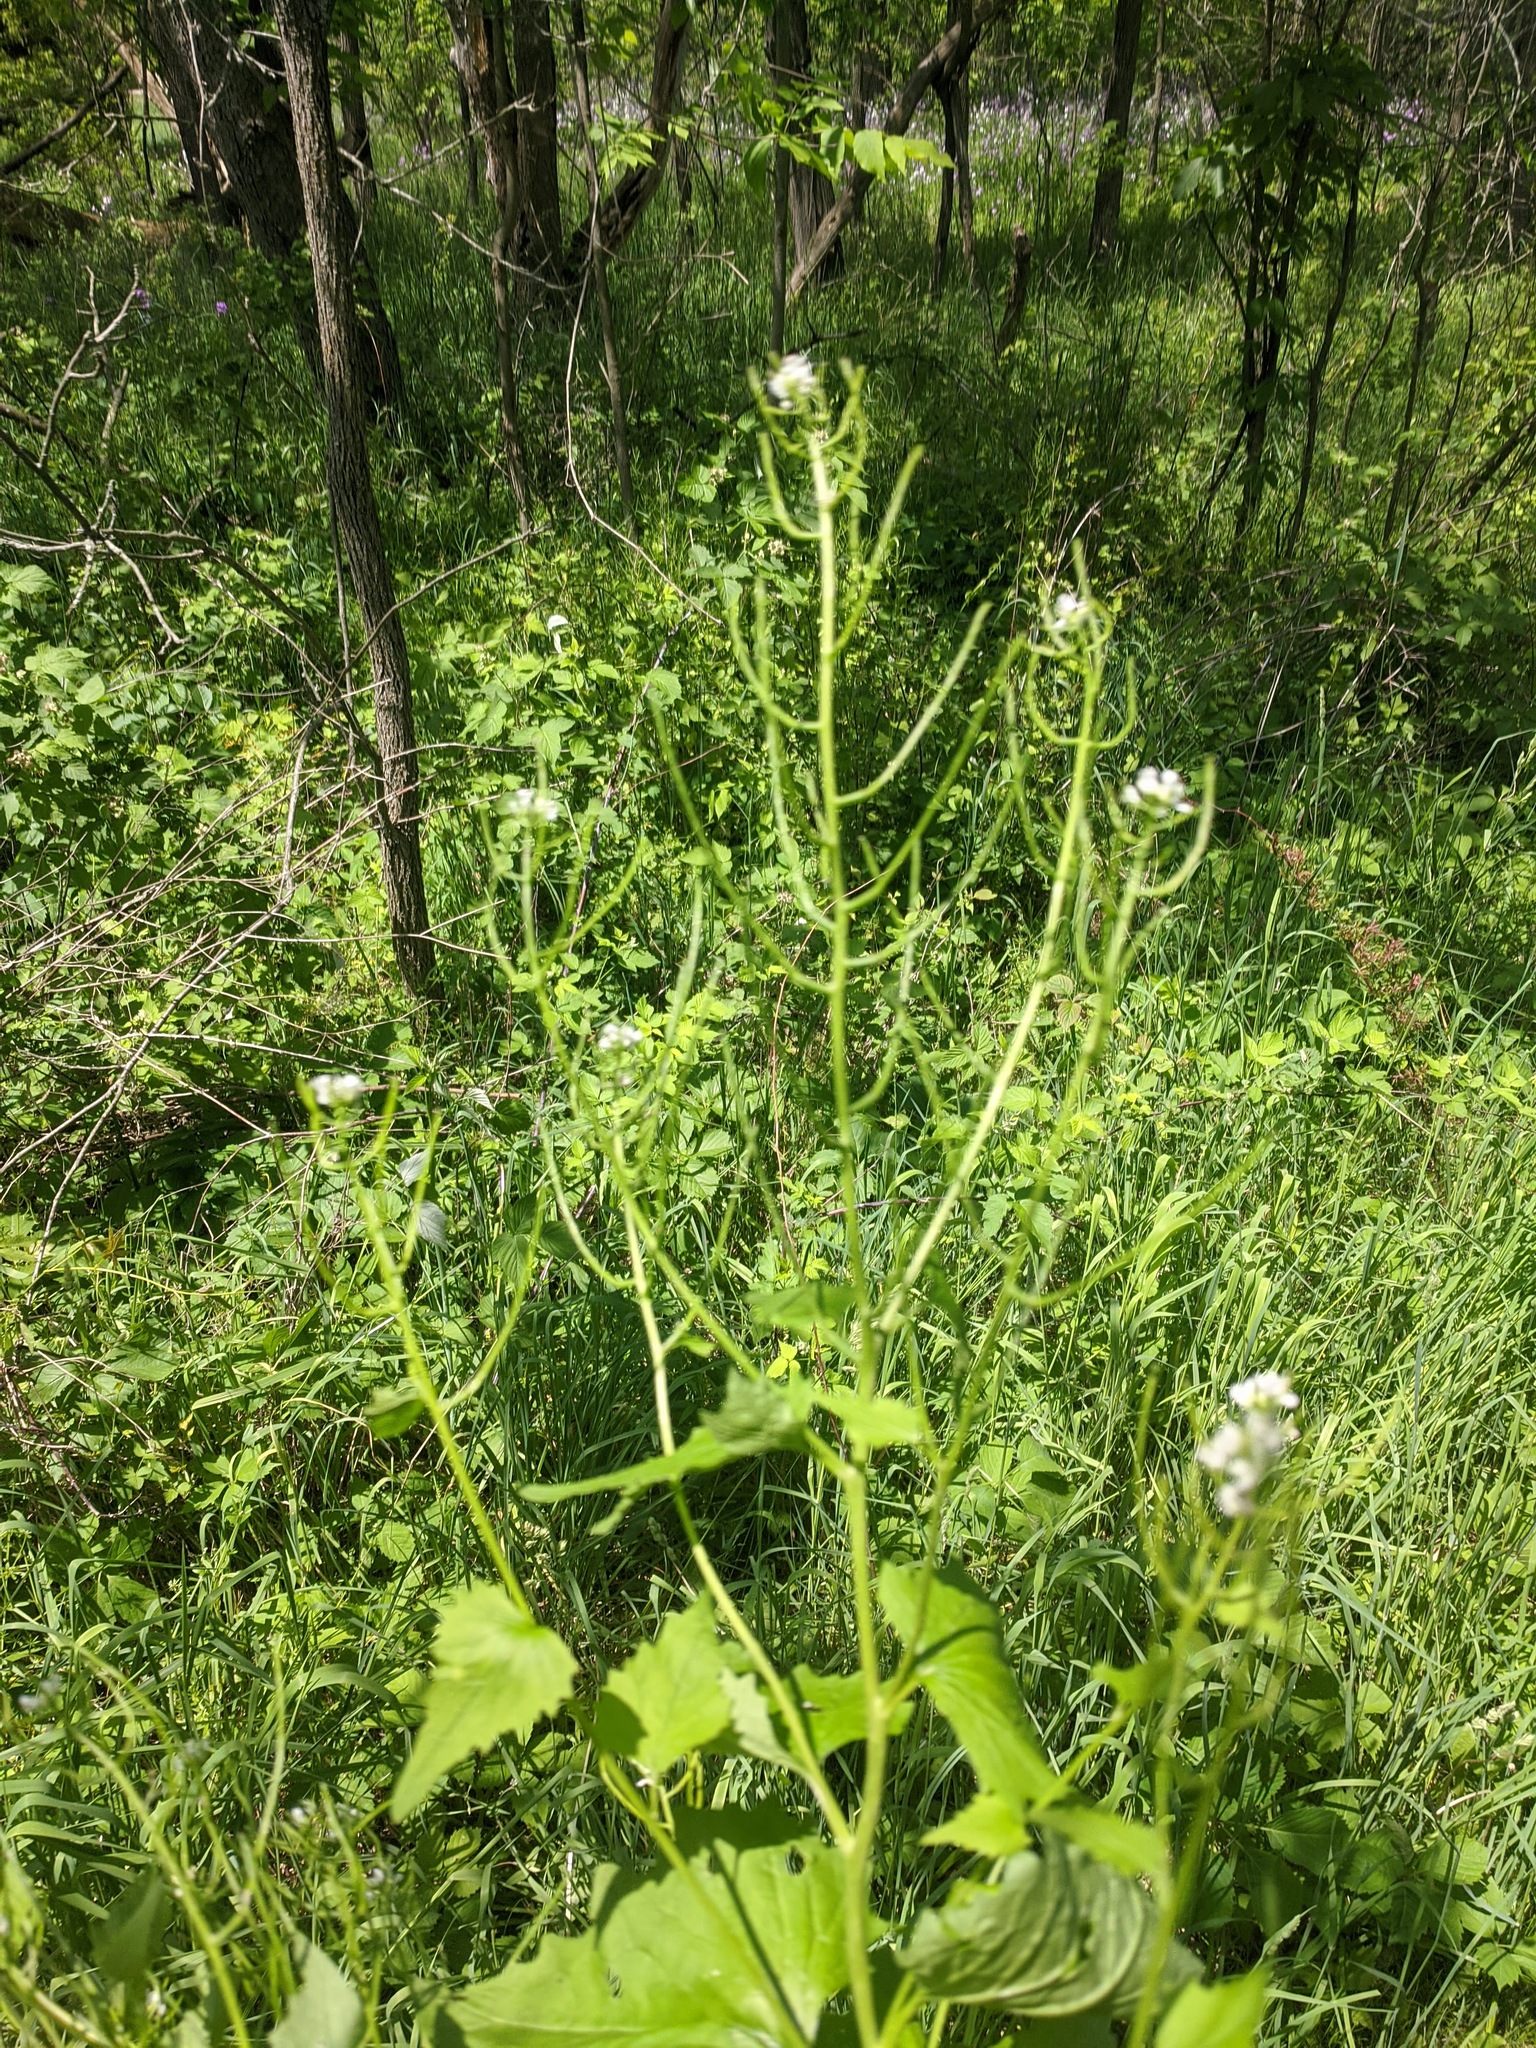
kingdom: Plantae
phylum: Tracheophyta
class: Magnoliopsida
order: Brassicales
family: Brassicaceae
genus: Alliaria
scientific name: Alliaria petiolata
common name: Garlic mustard
